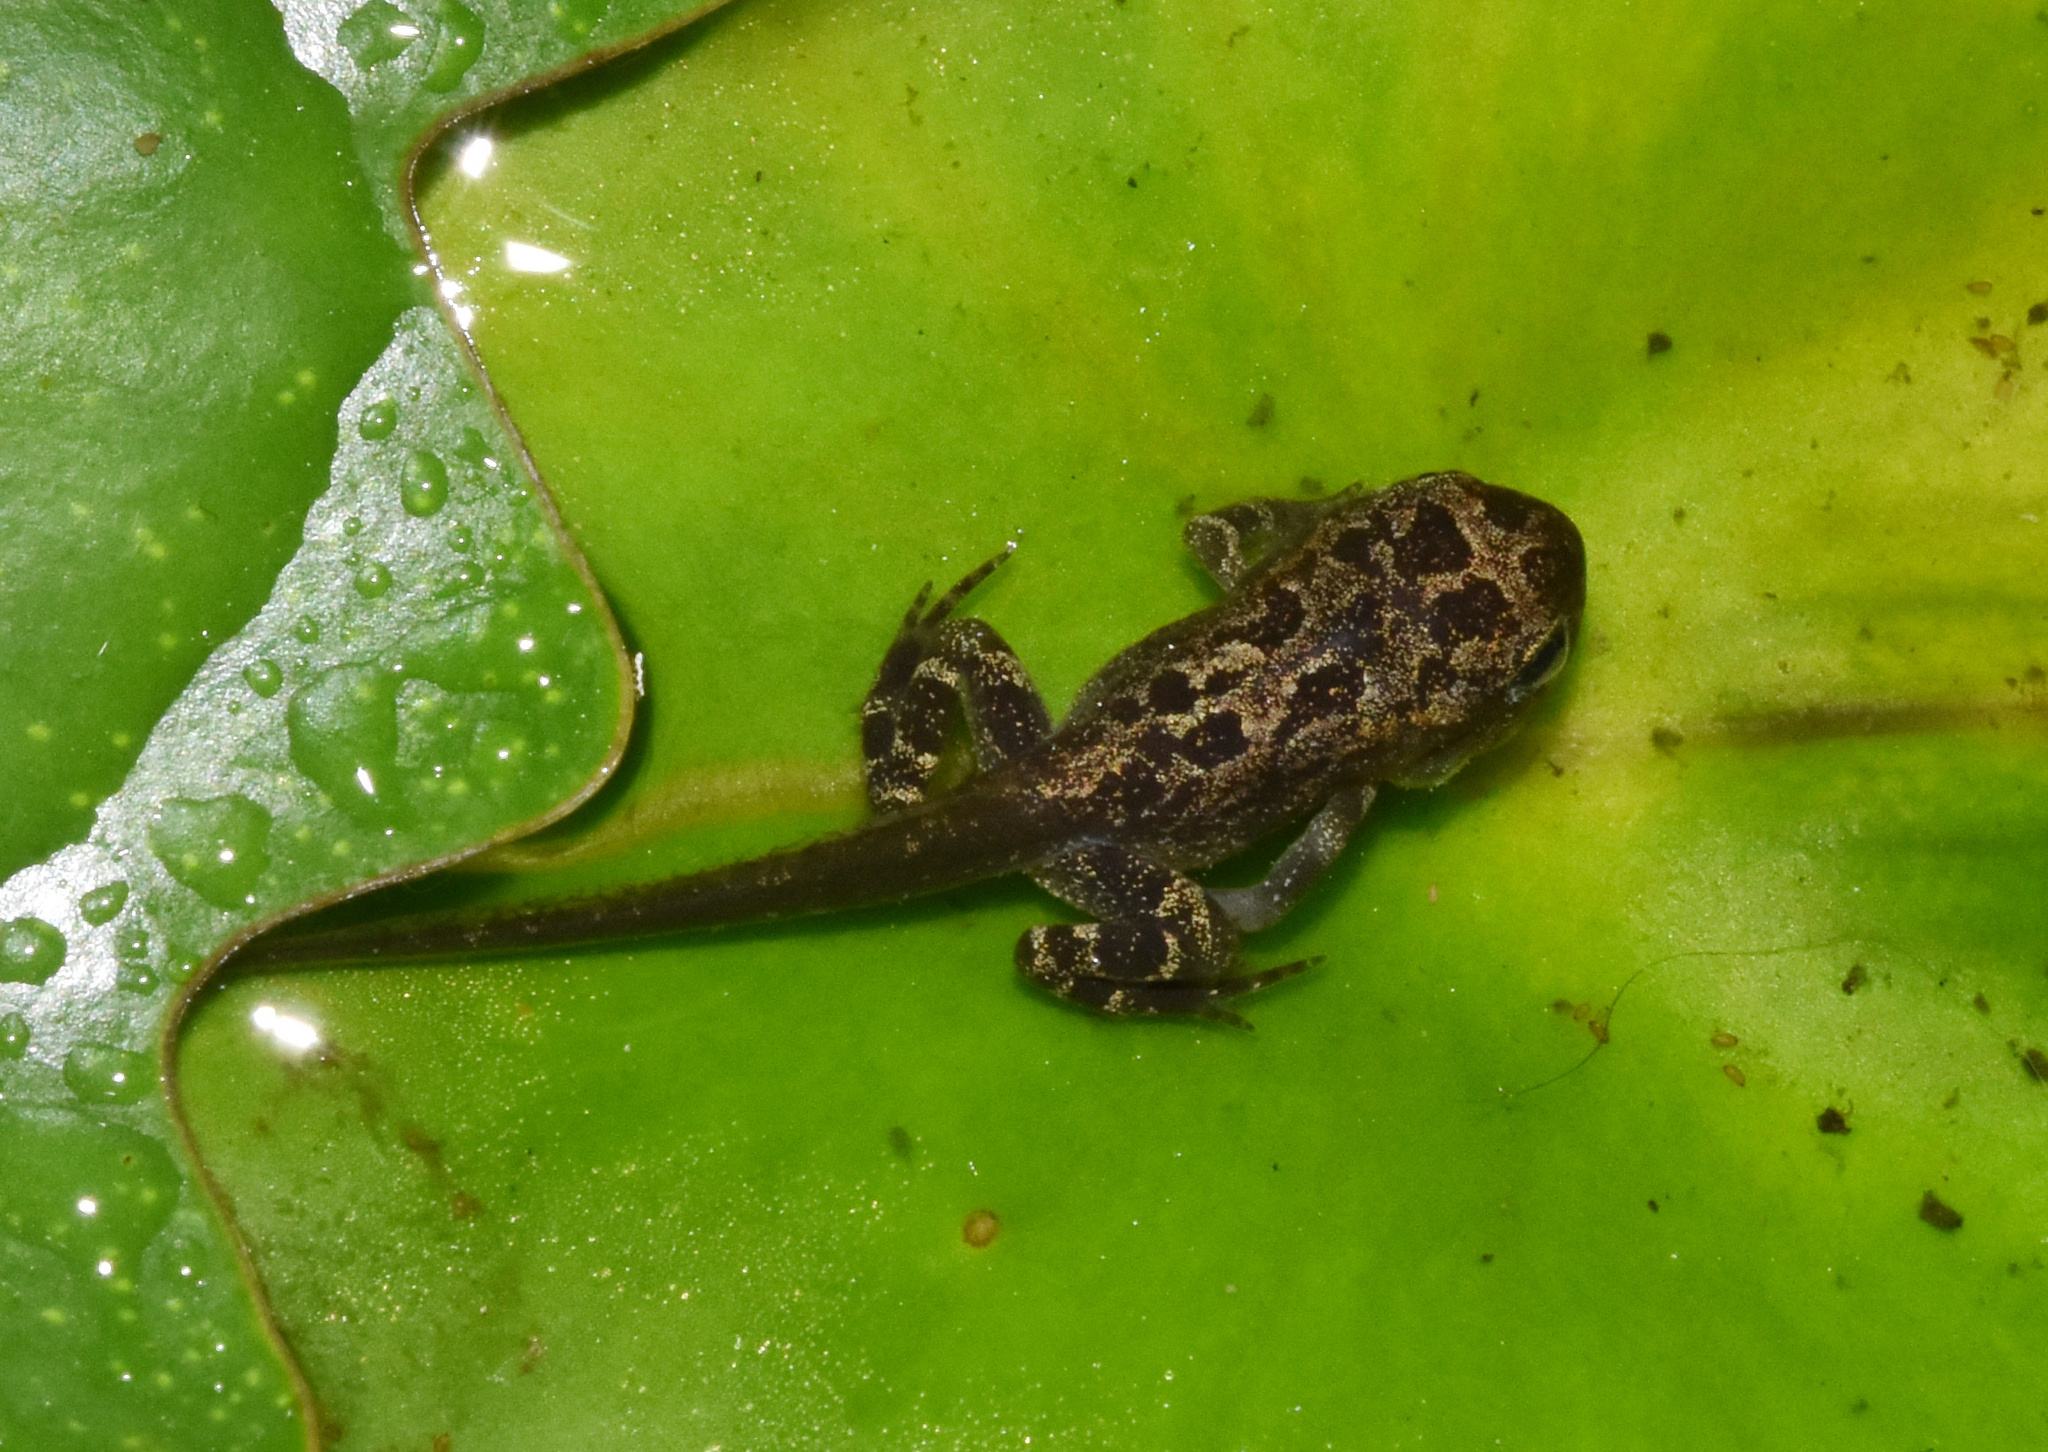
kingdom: Animalia
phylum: Chordata
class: Amphibia
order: Anura
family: Bufonidae
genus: Sclerophrys
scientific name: Sclerophrys gutturalis
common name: African common toad
